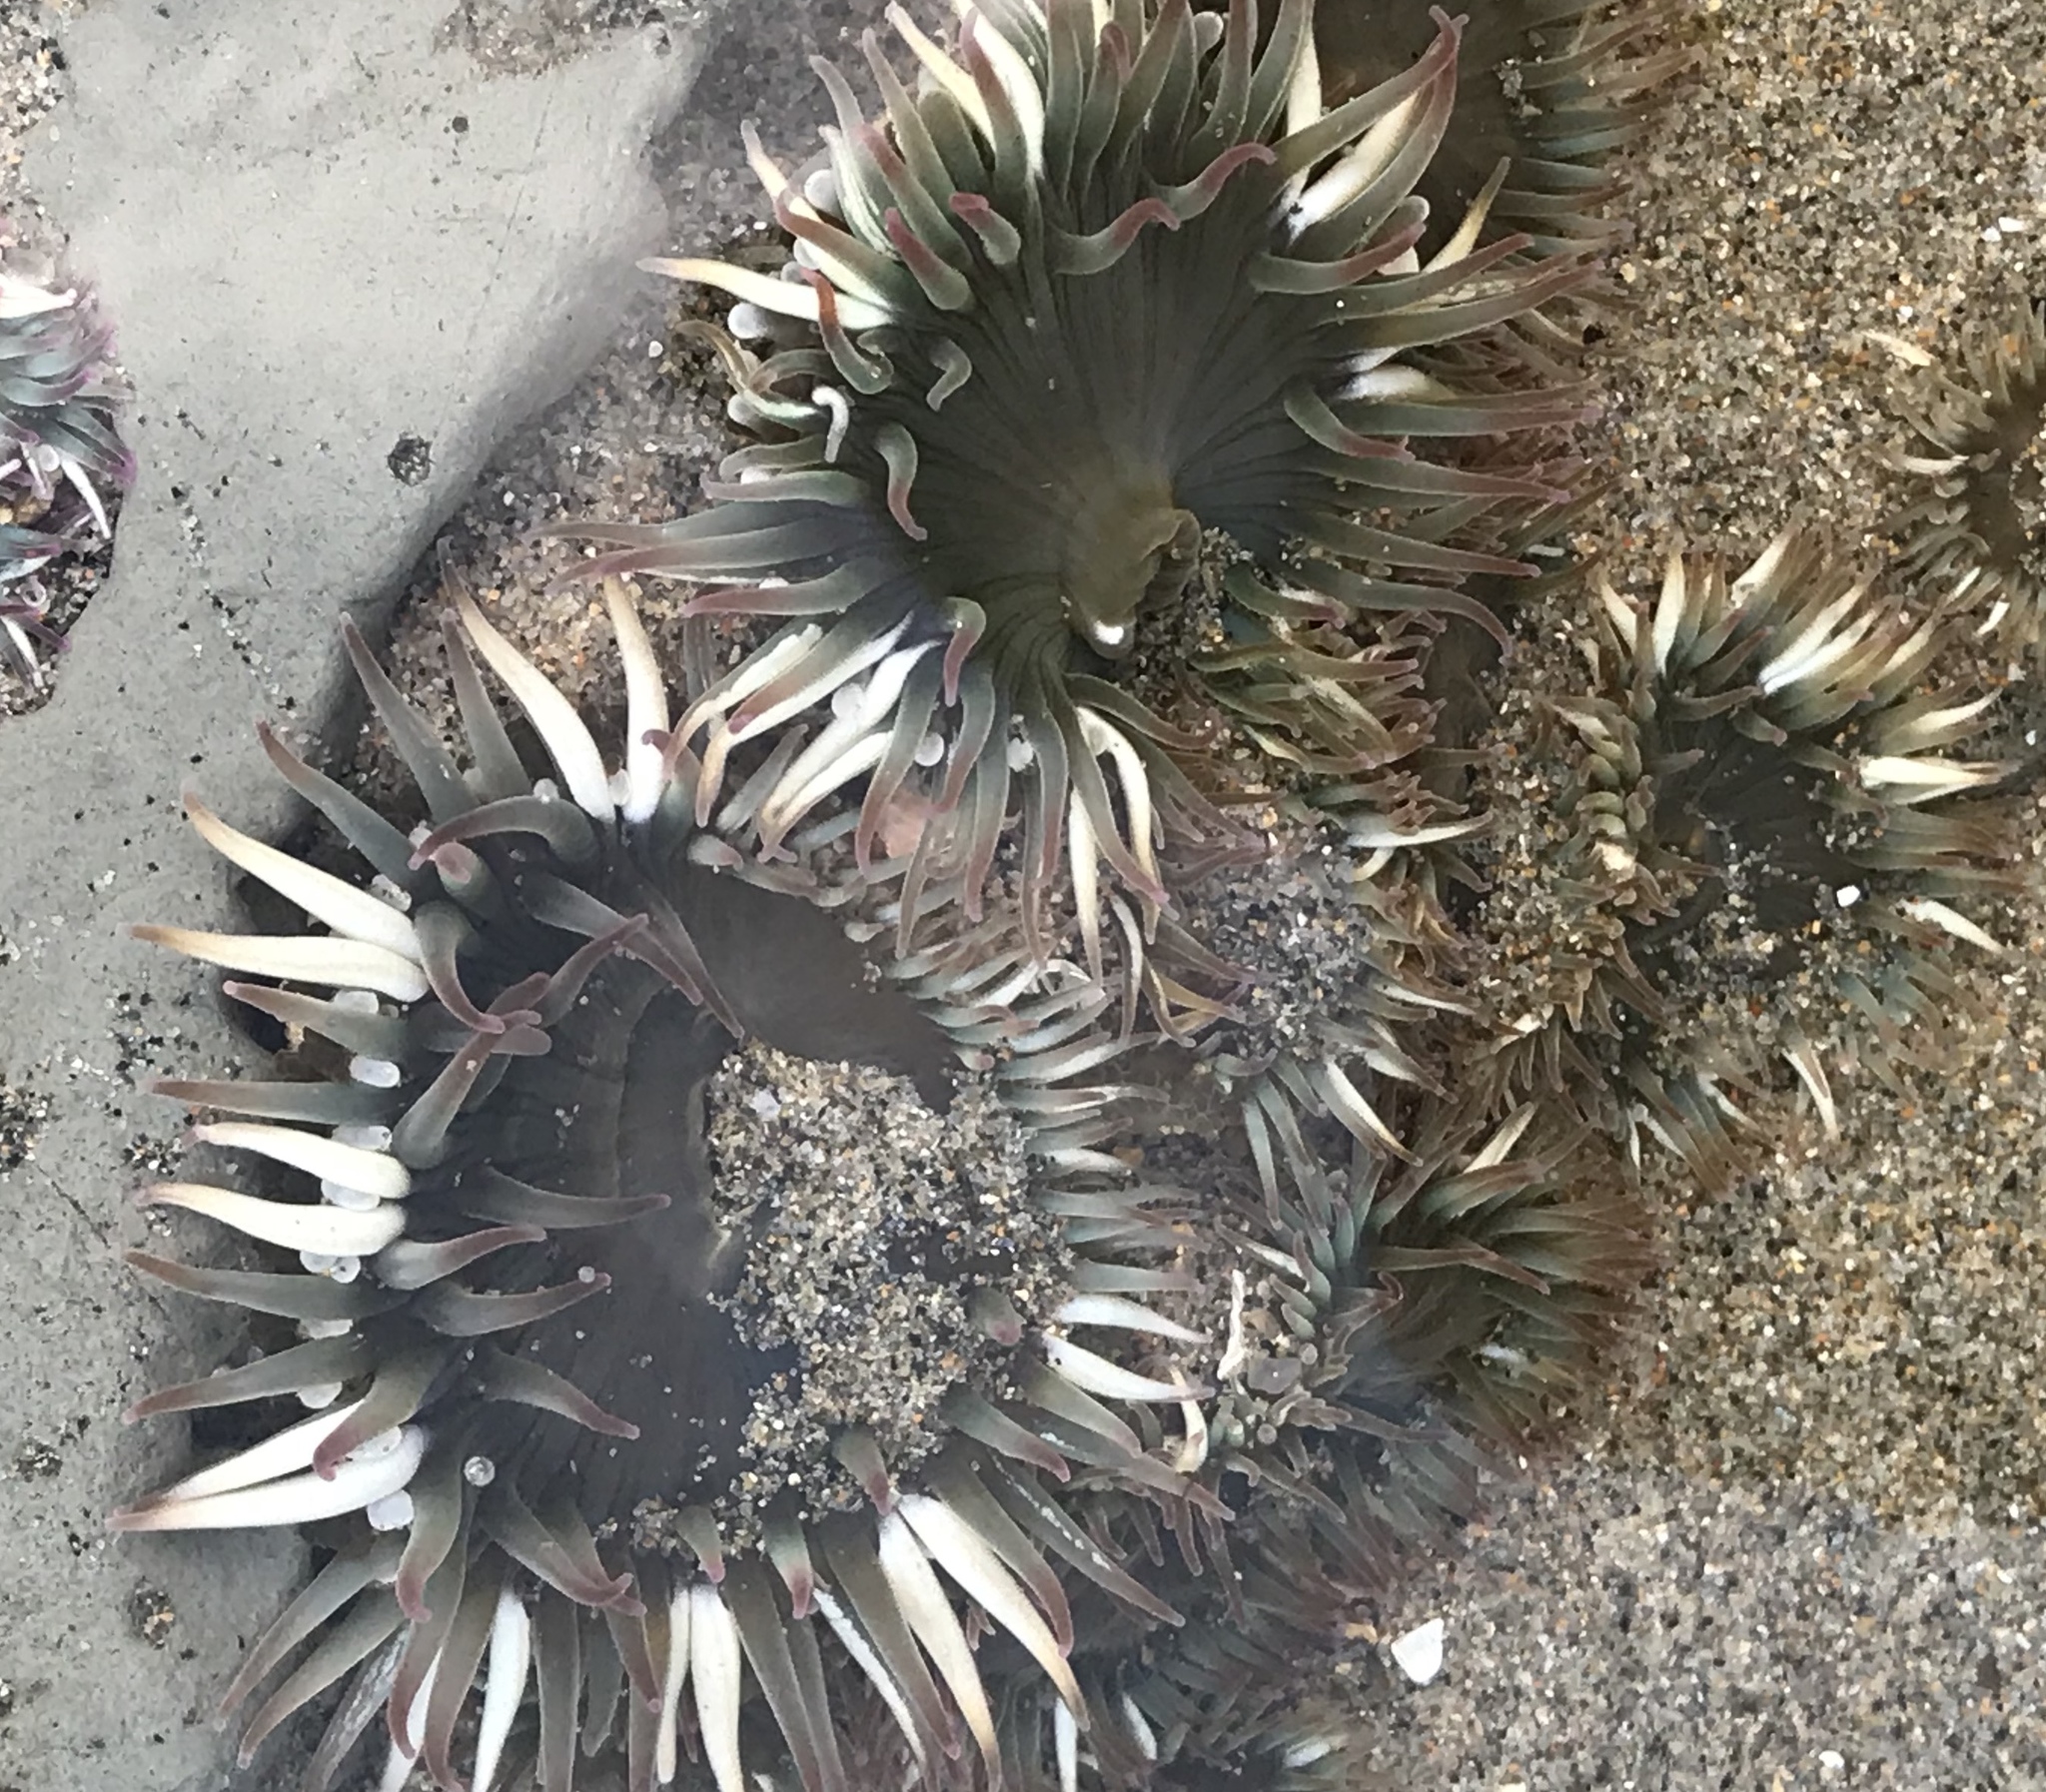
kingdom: Animalia
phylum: Cnidaria
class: Anthozoa
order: Actiniaria
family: Actiniidae
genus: Anthopleura
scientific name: Anthopleura elegantissima
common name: Clonal anemone
